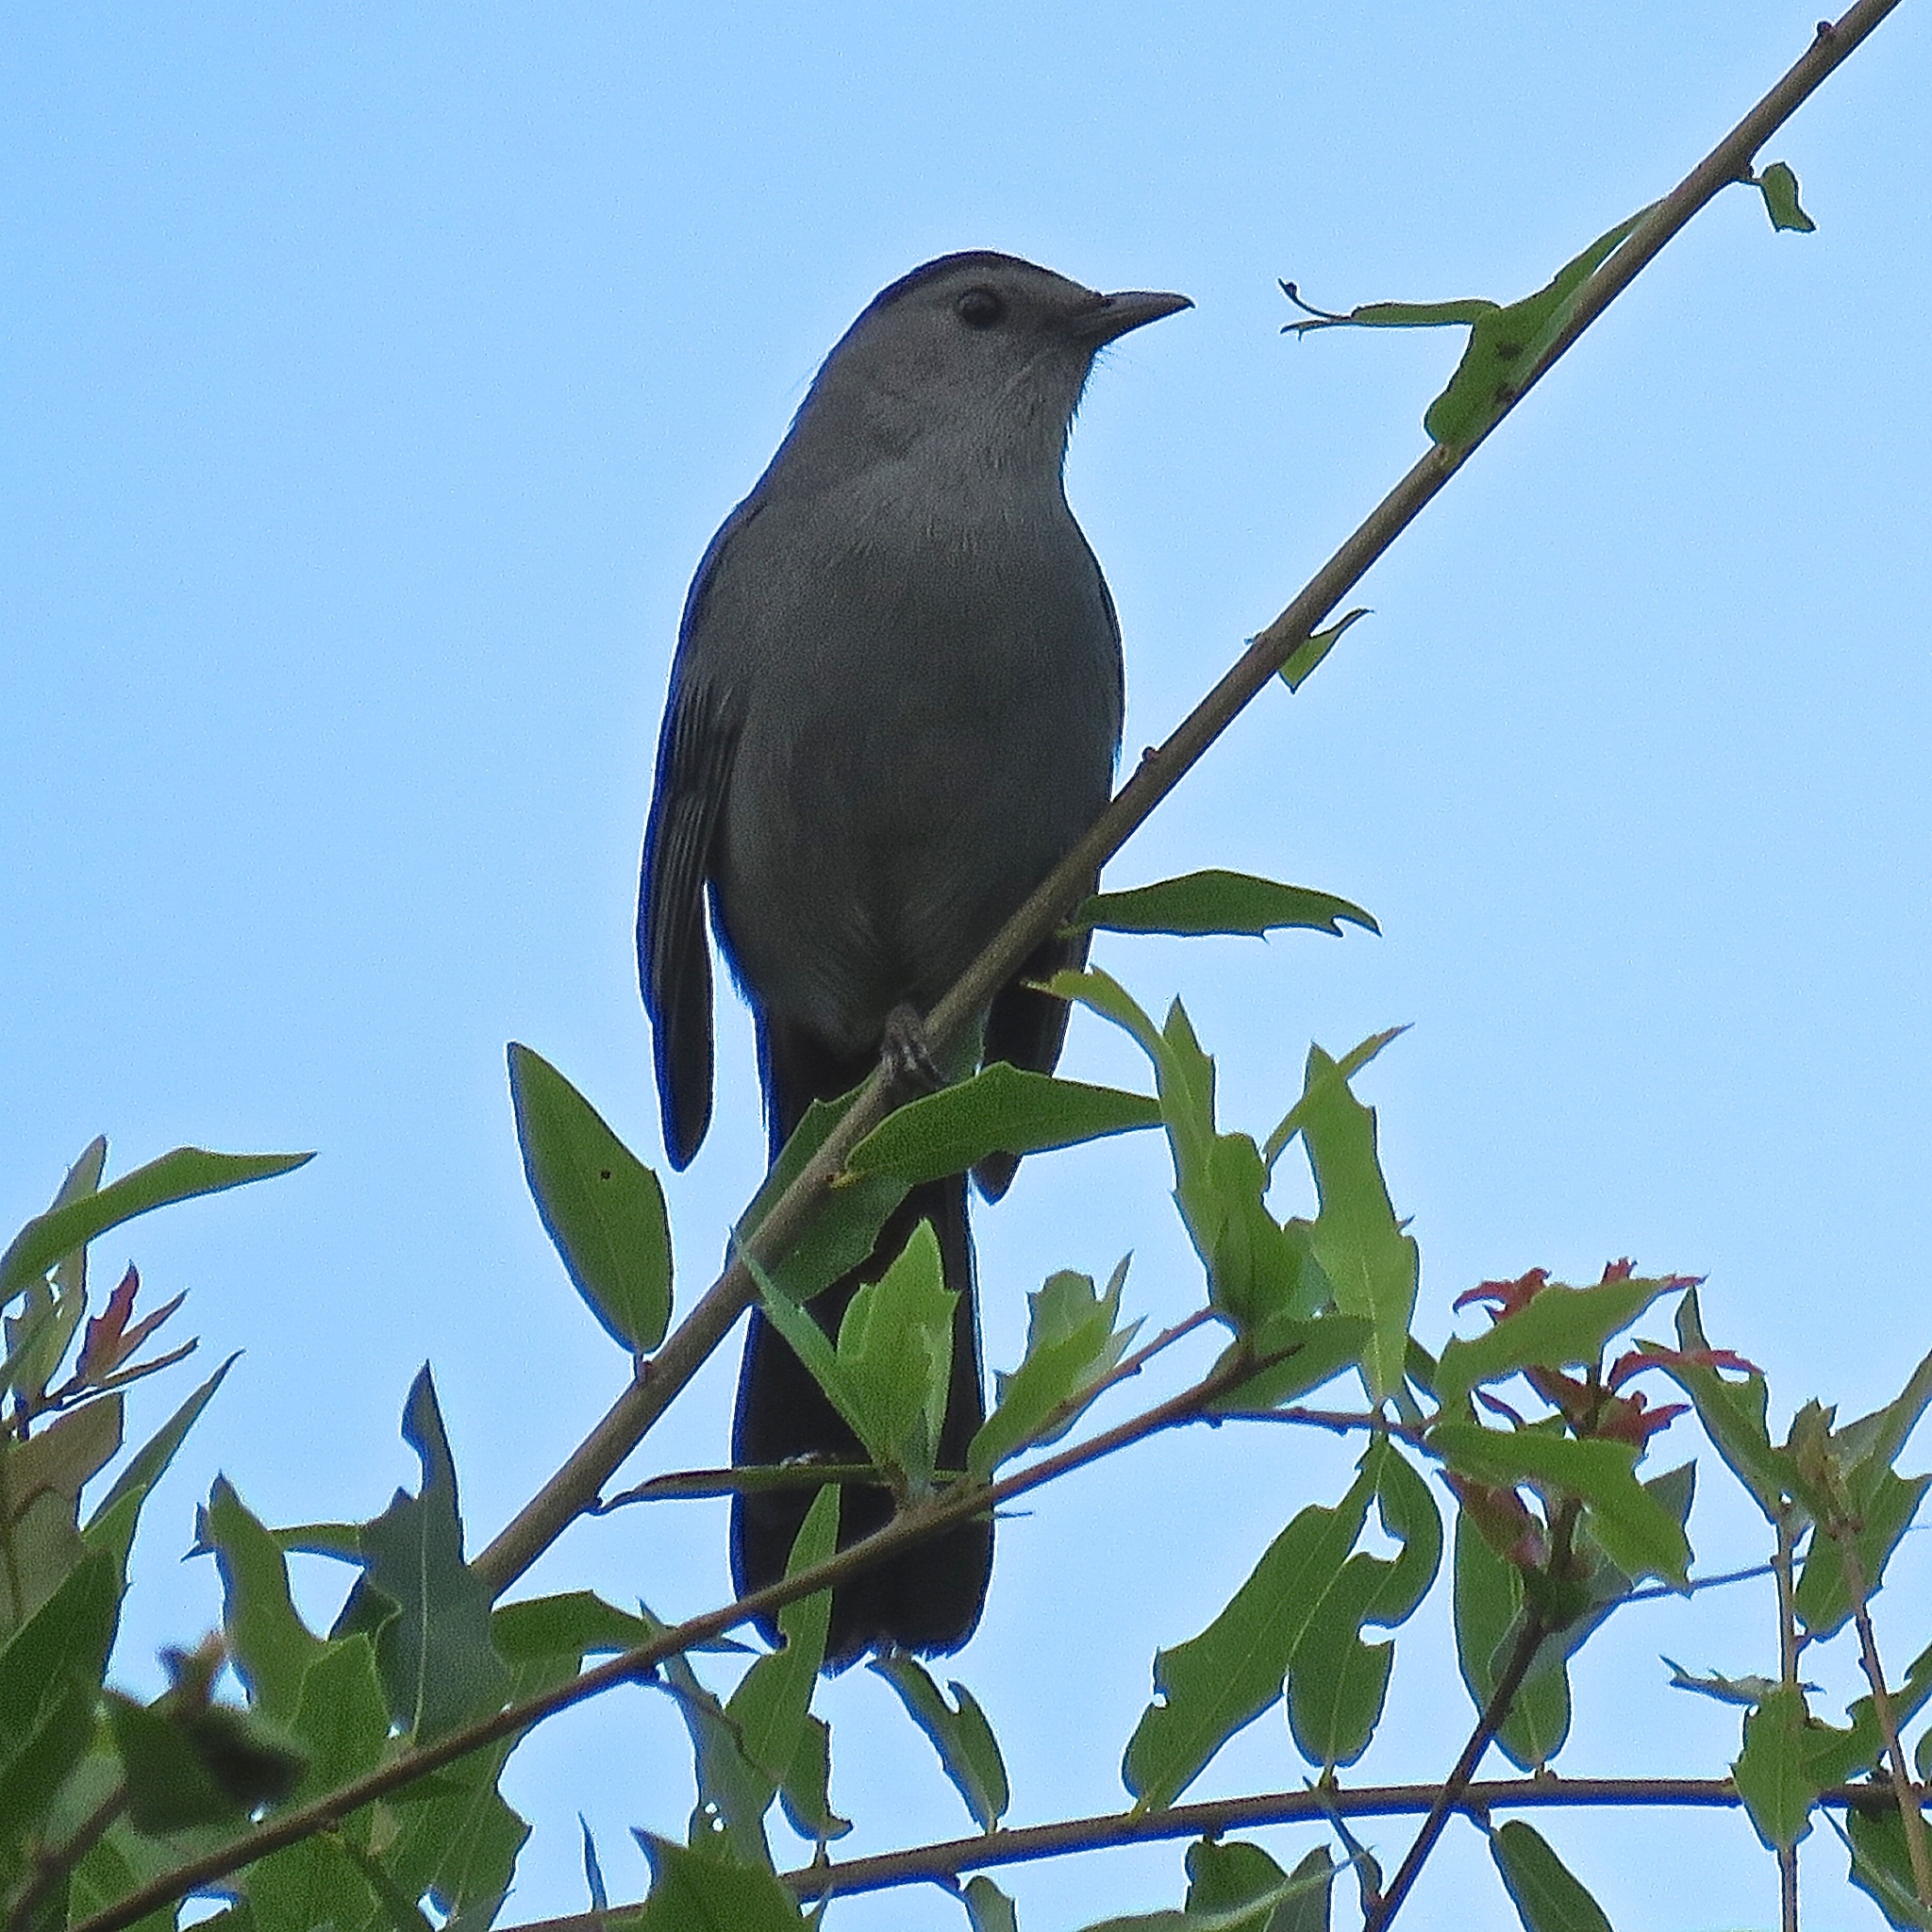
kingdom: Animalia
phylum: Chordata
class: Aves
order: Passeriformes
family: Mimidae
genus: Dumetella
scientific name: Dumetella carolinensis
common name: Gray catbird
